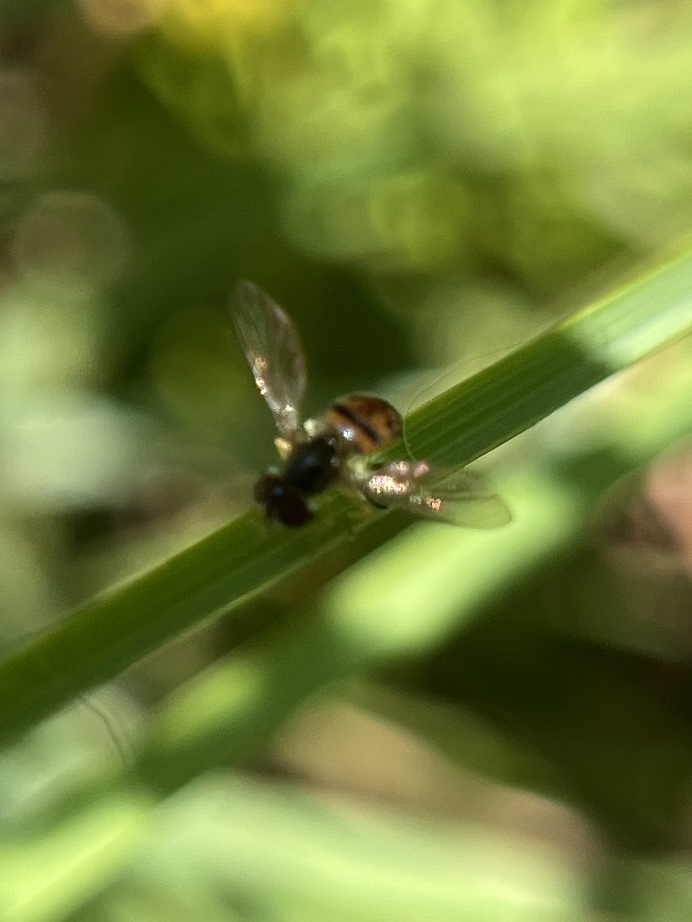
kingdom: Animalia
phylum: Arthropoda
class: Insecta
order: Diptera
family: Syrphidae
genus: Toxomerus
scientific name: Toxomerus geminatus
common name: Eastern calligrapher
